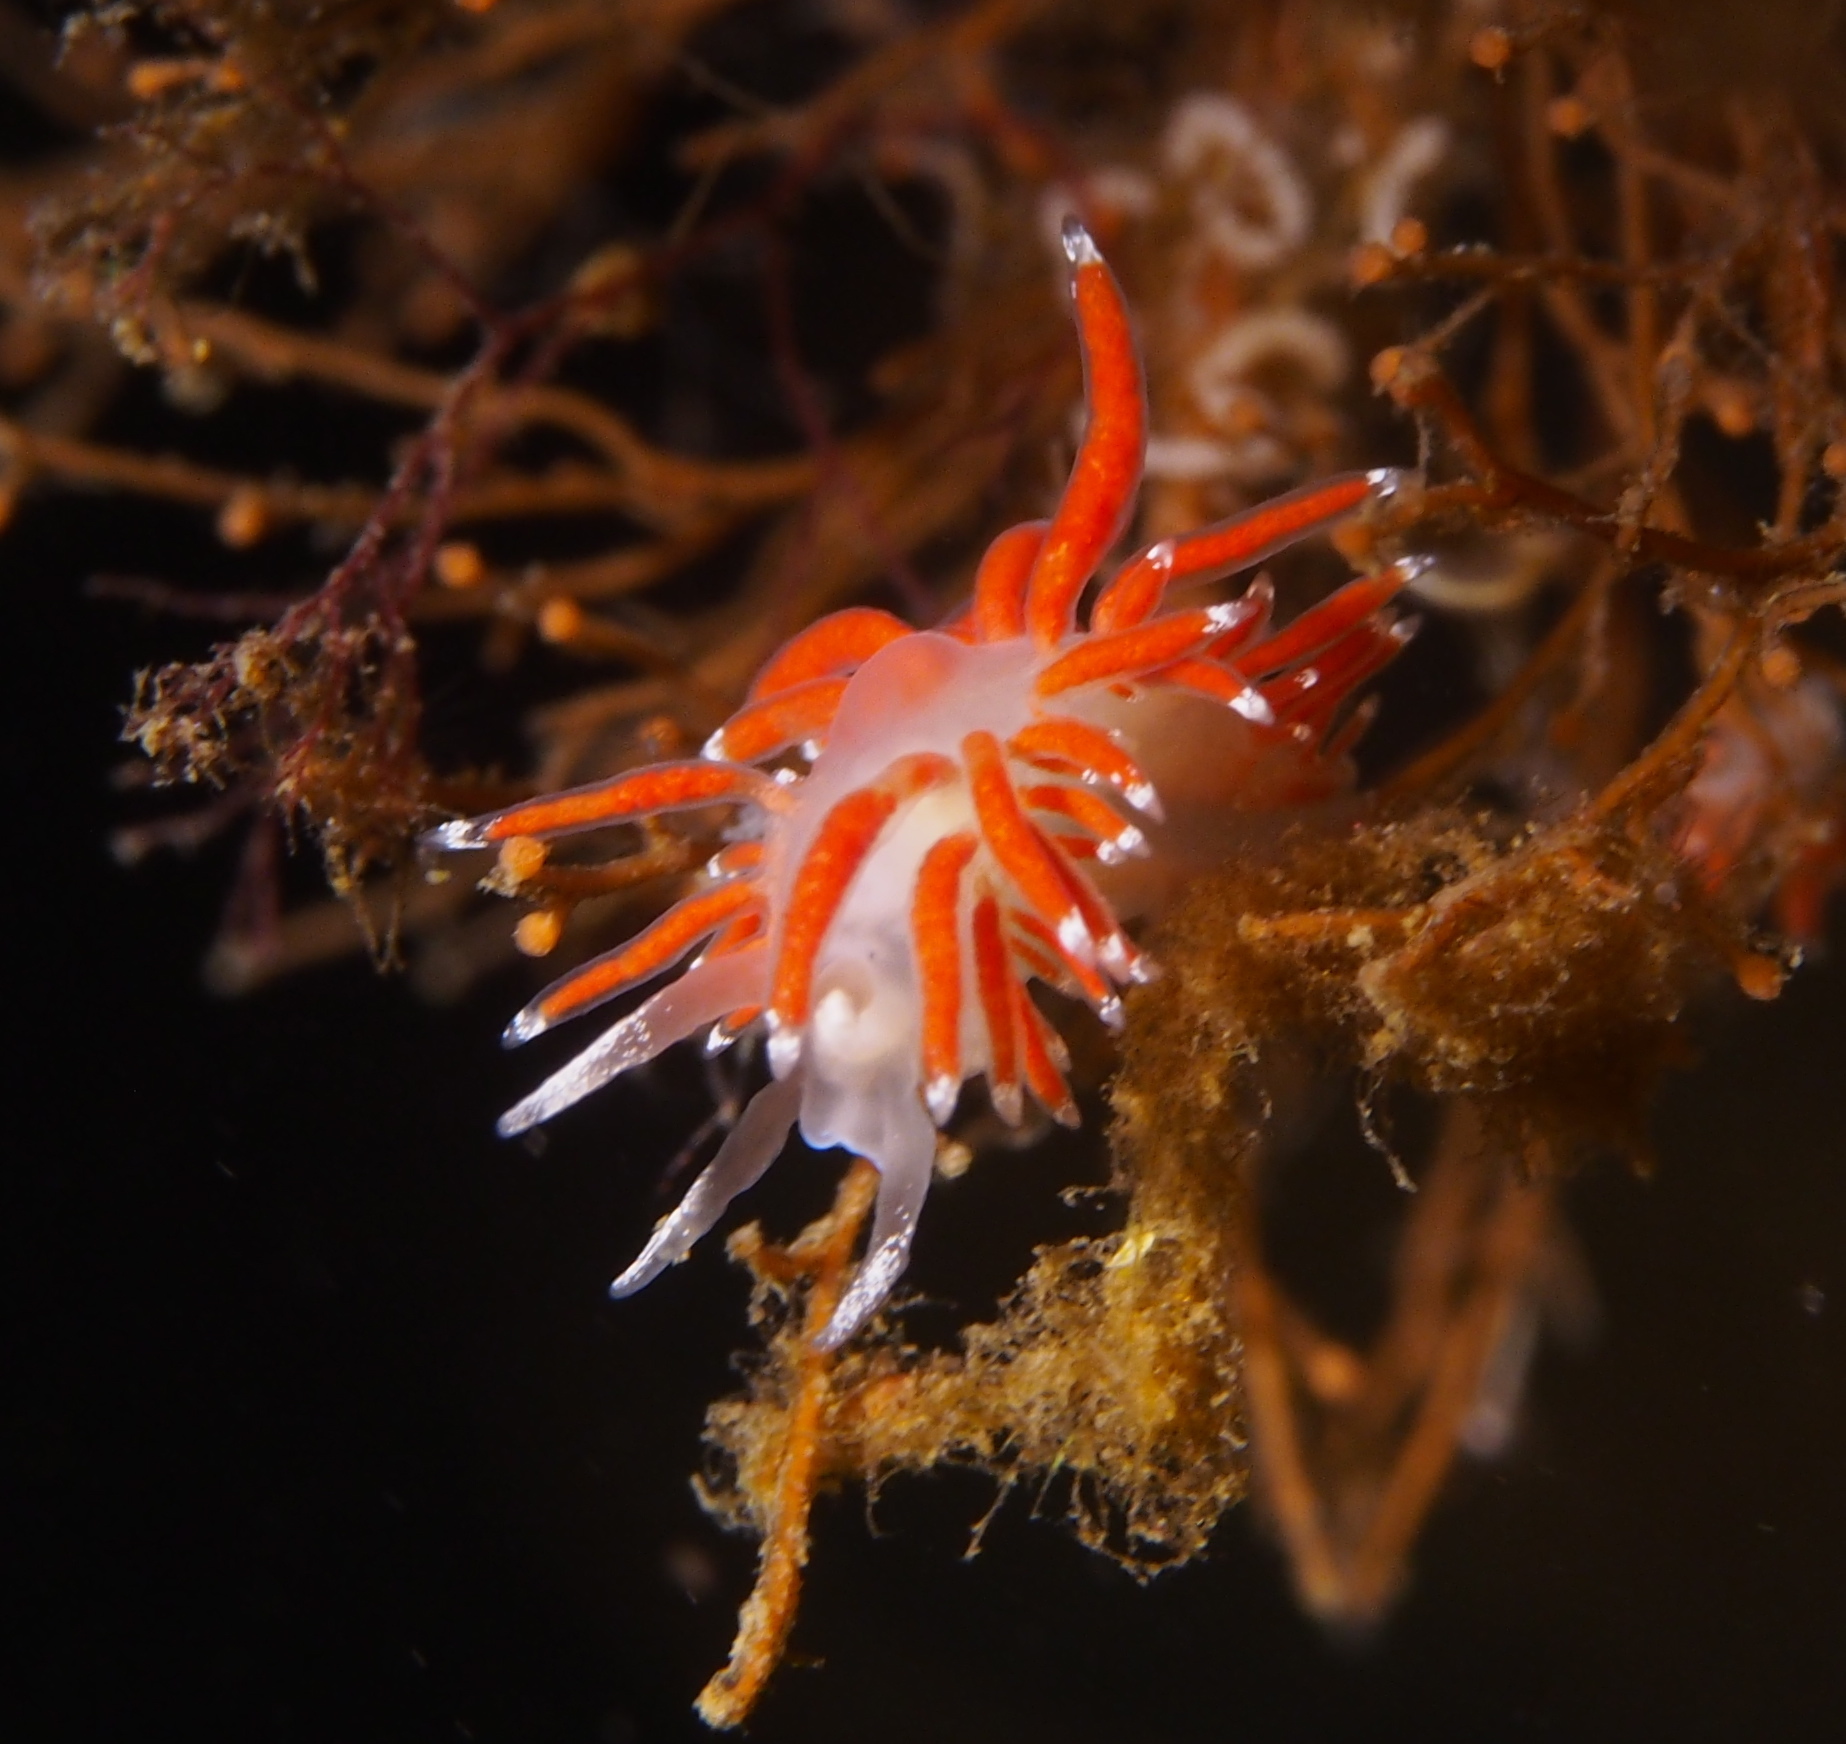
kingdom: Animalia
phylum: Mollusca
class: Gastropoda
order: Nudibranchia
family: Coryphellidae
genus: Coryphella
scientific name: Coryphella gracilis
